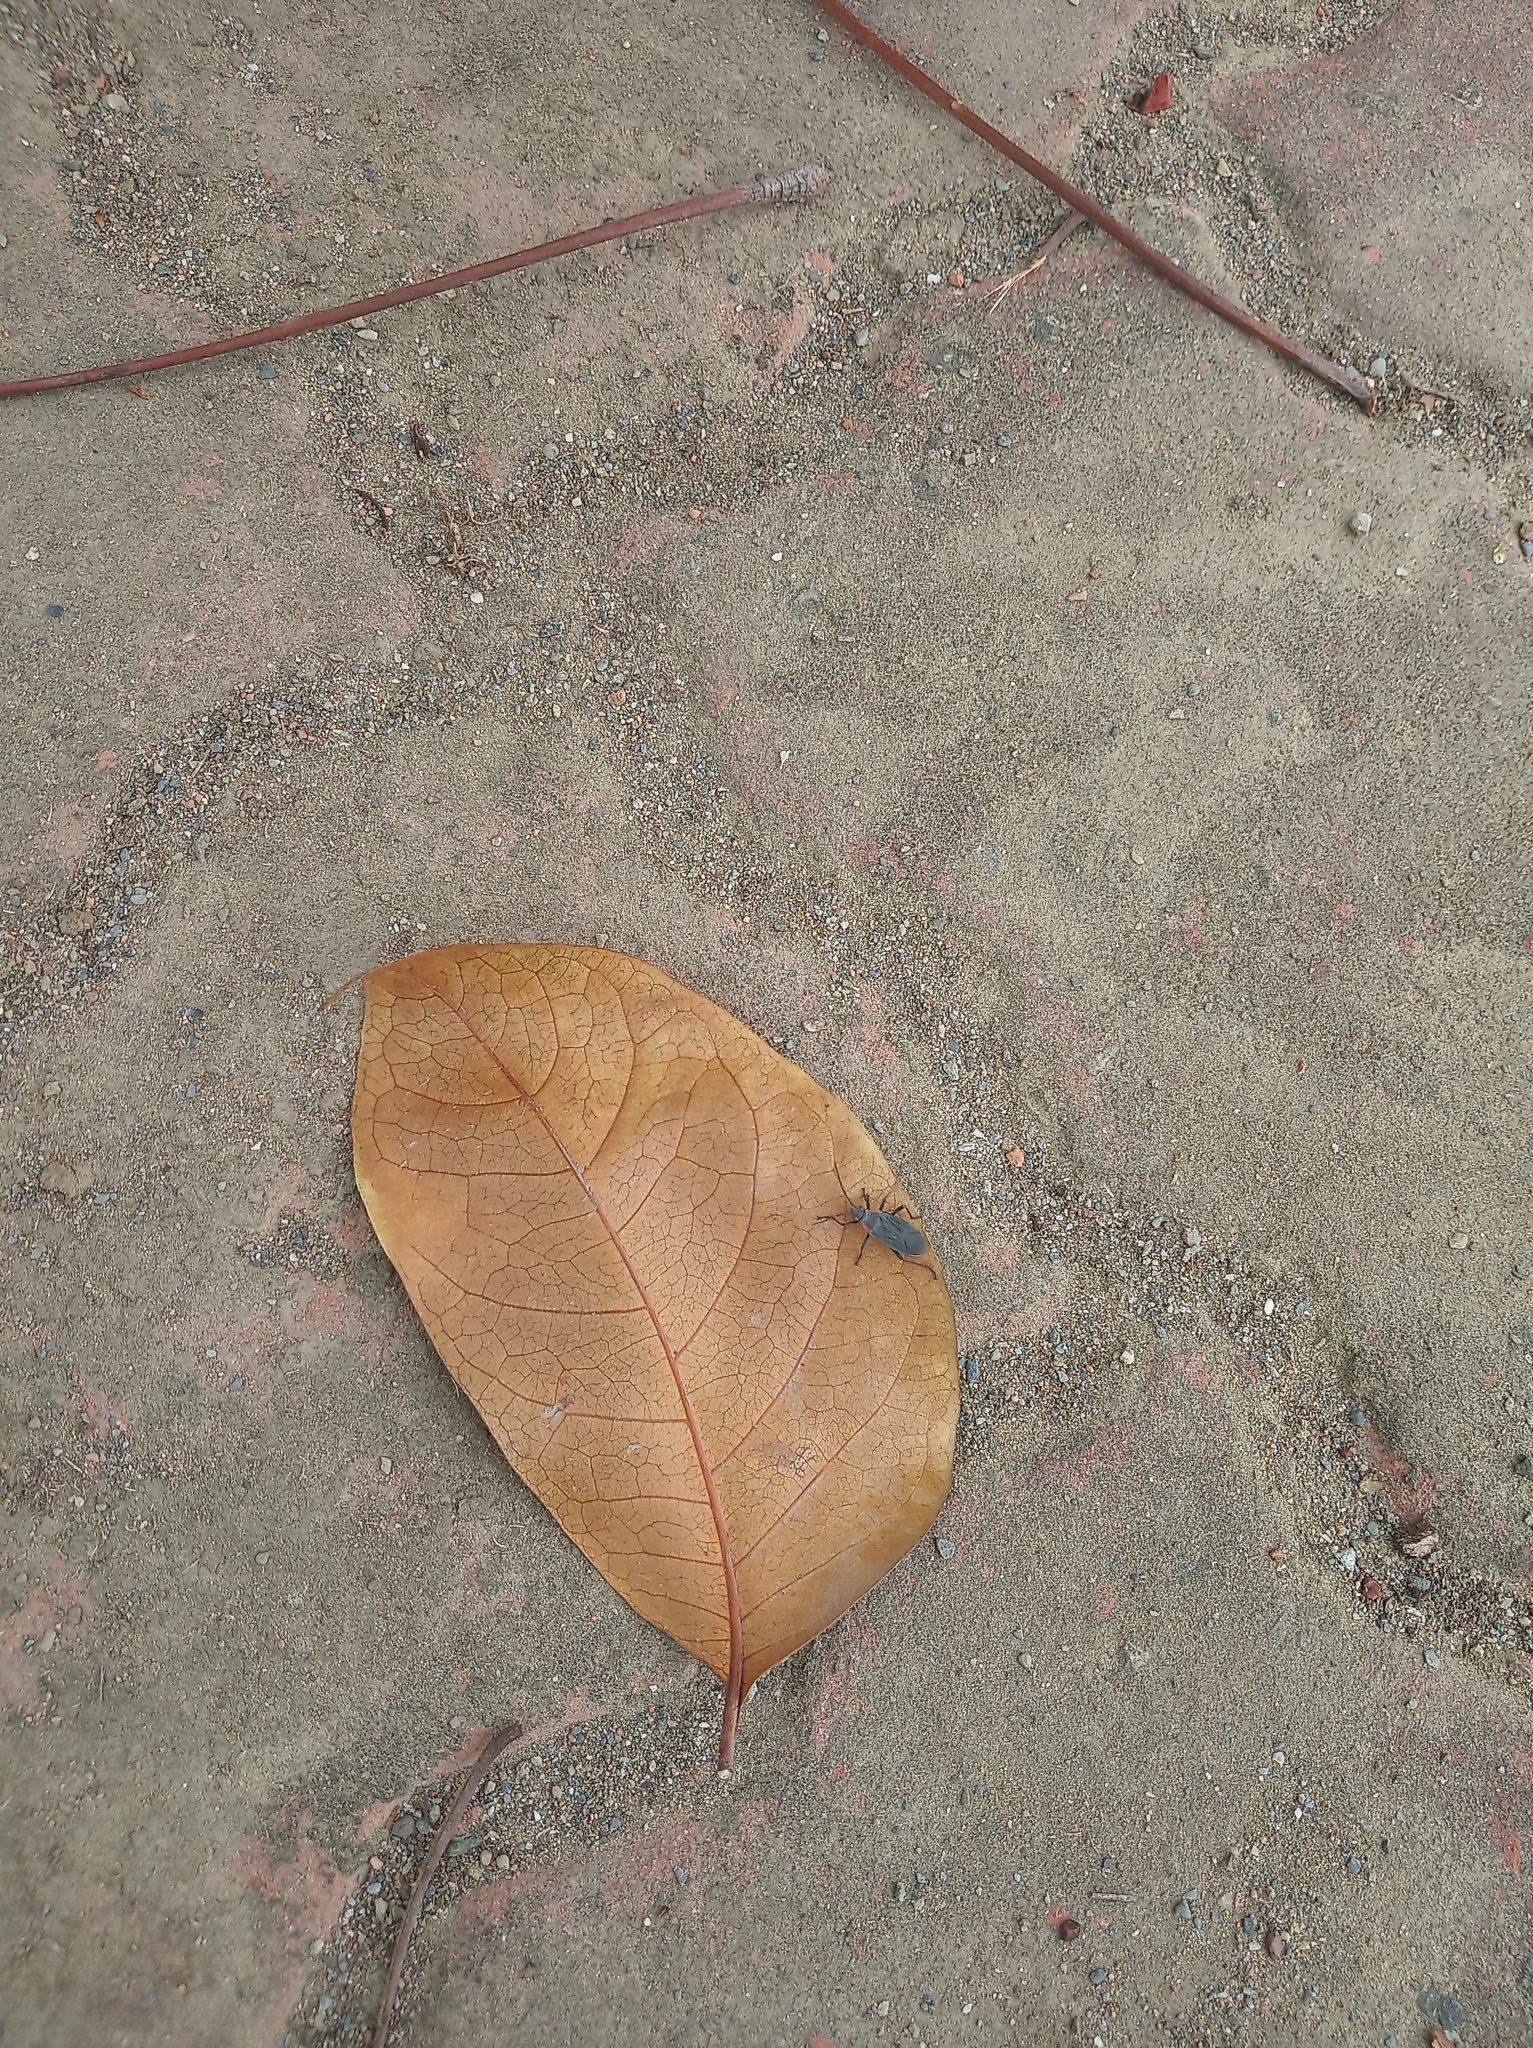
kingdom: Animalia
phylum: Arthropoda
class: Insecta
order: Hemiptera
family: Rhopalidae
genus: Jadera
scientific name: Jadera haematoloma
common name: Red-shouldered bug
